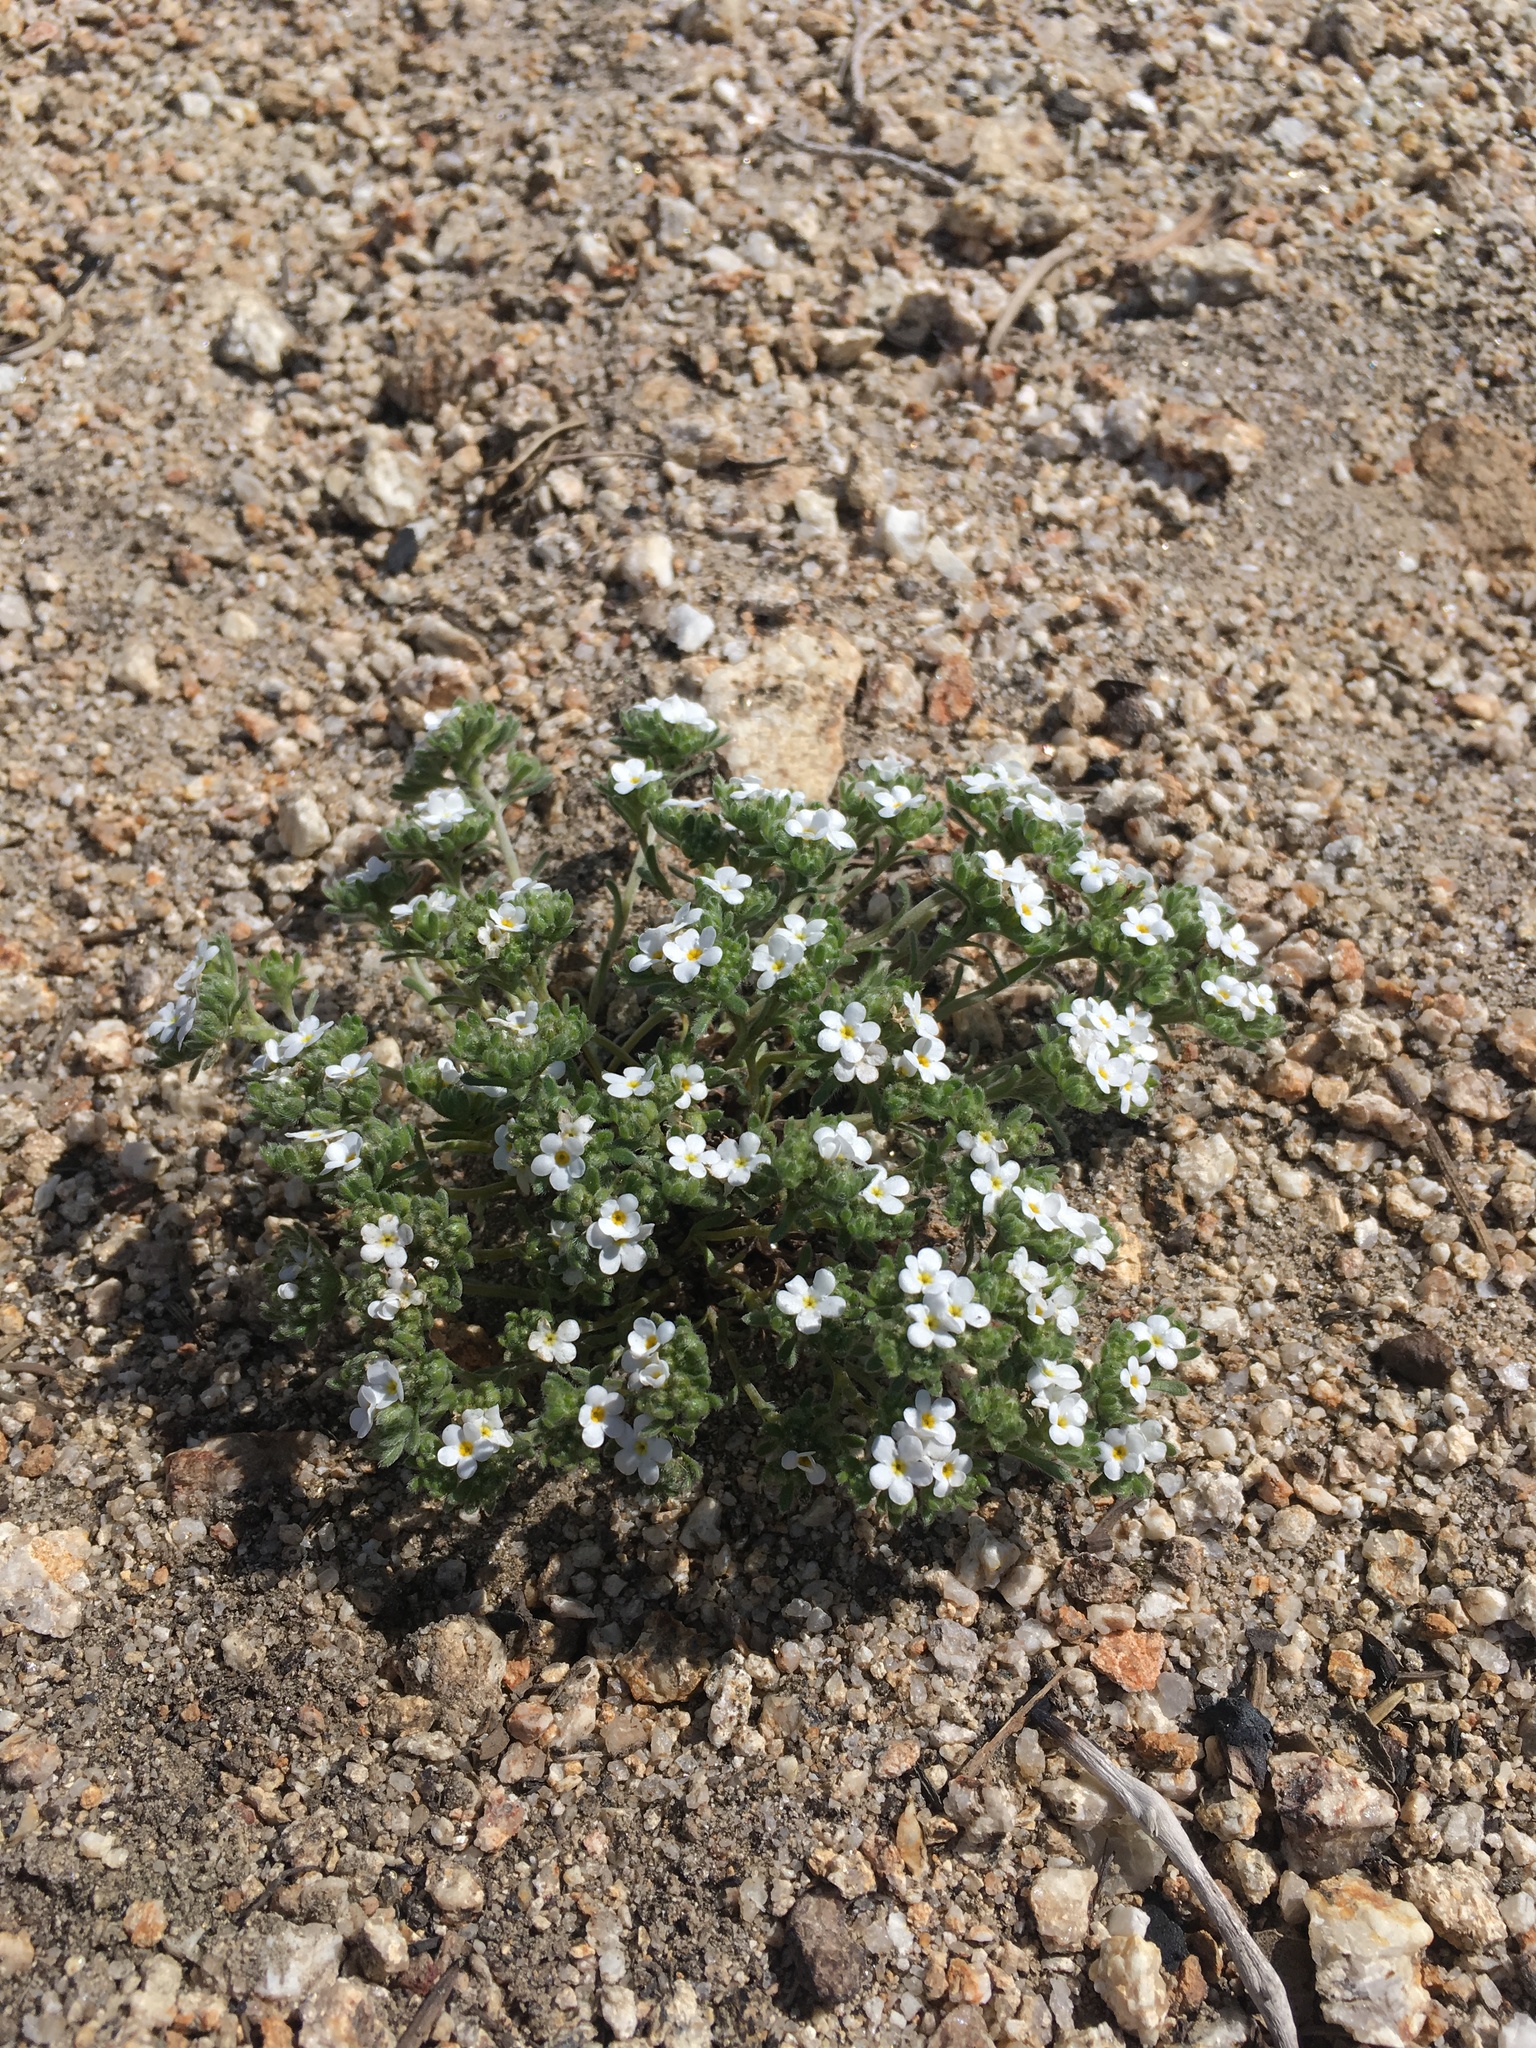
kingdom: Plantae
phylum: Tracheophyta
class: Magnoliopsida
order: Boraginales
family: Boraginaceae
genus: Eremocarya
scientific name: Eremocarya lepida
